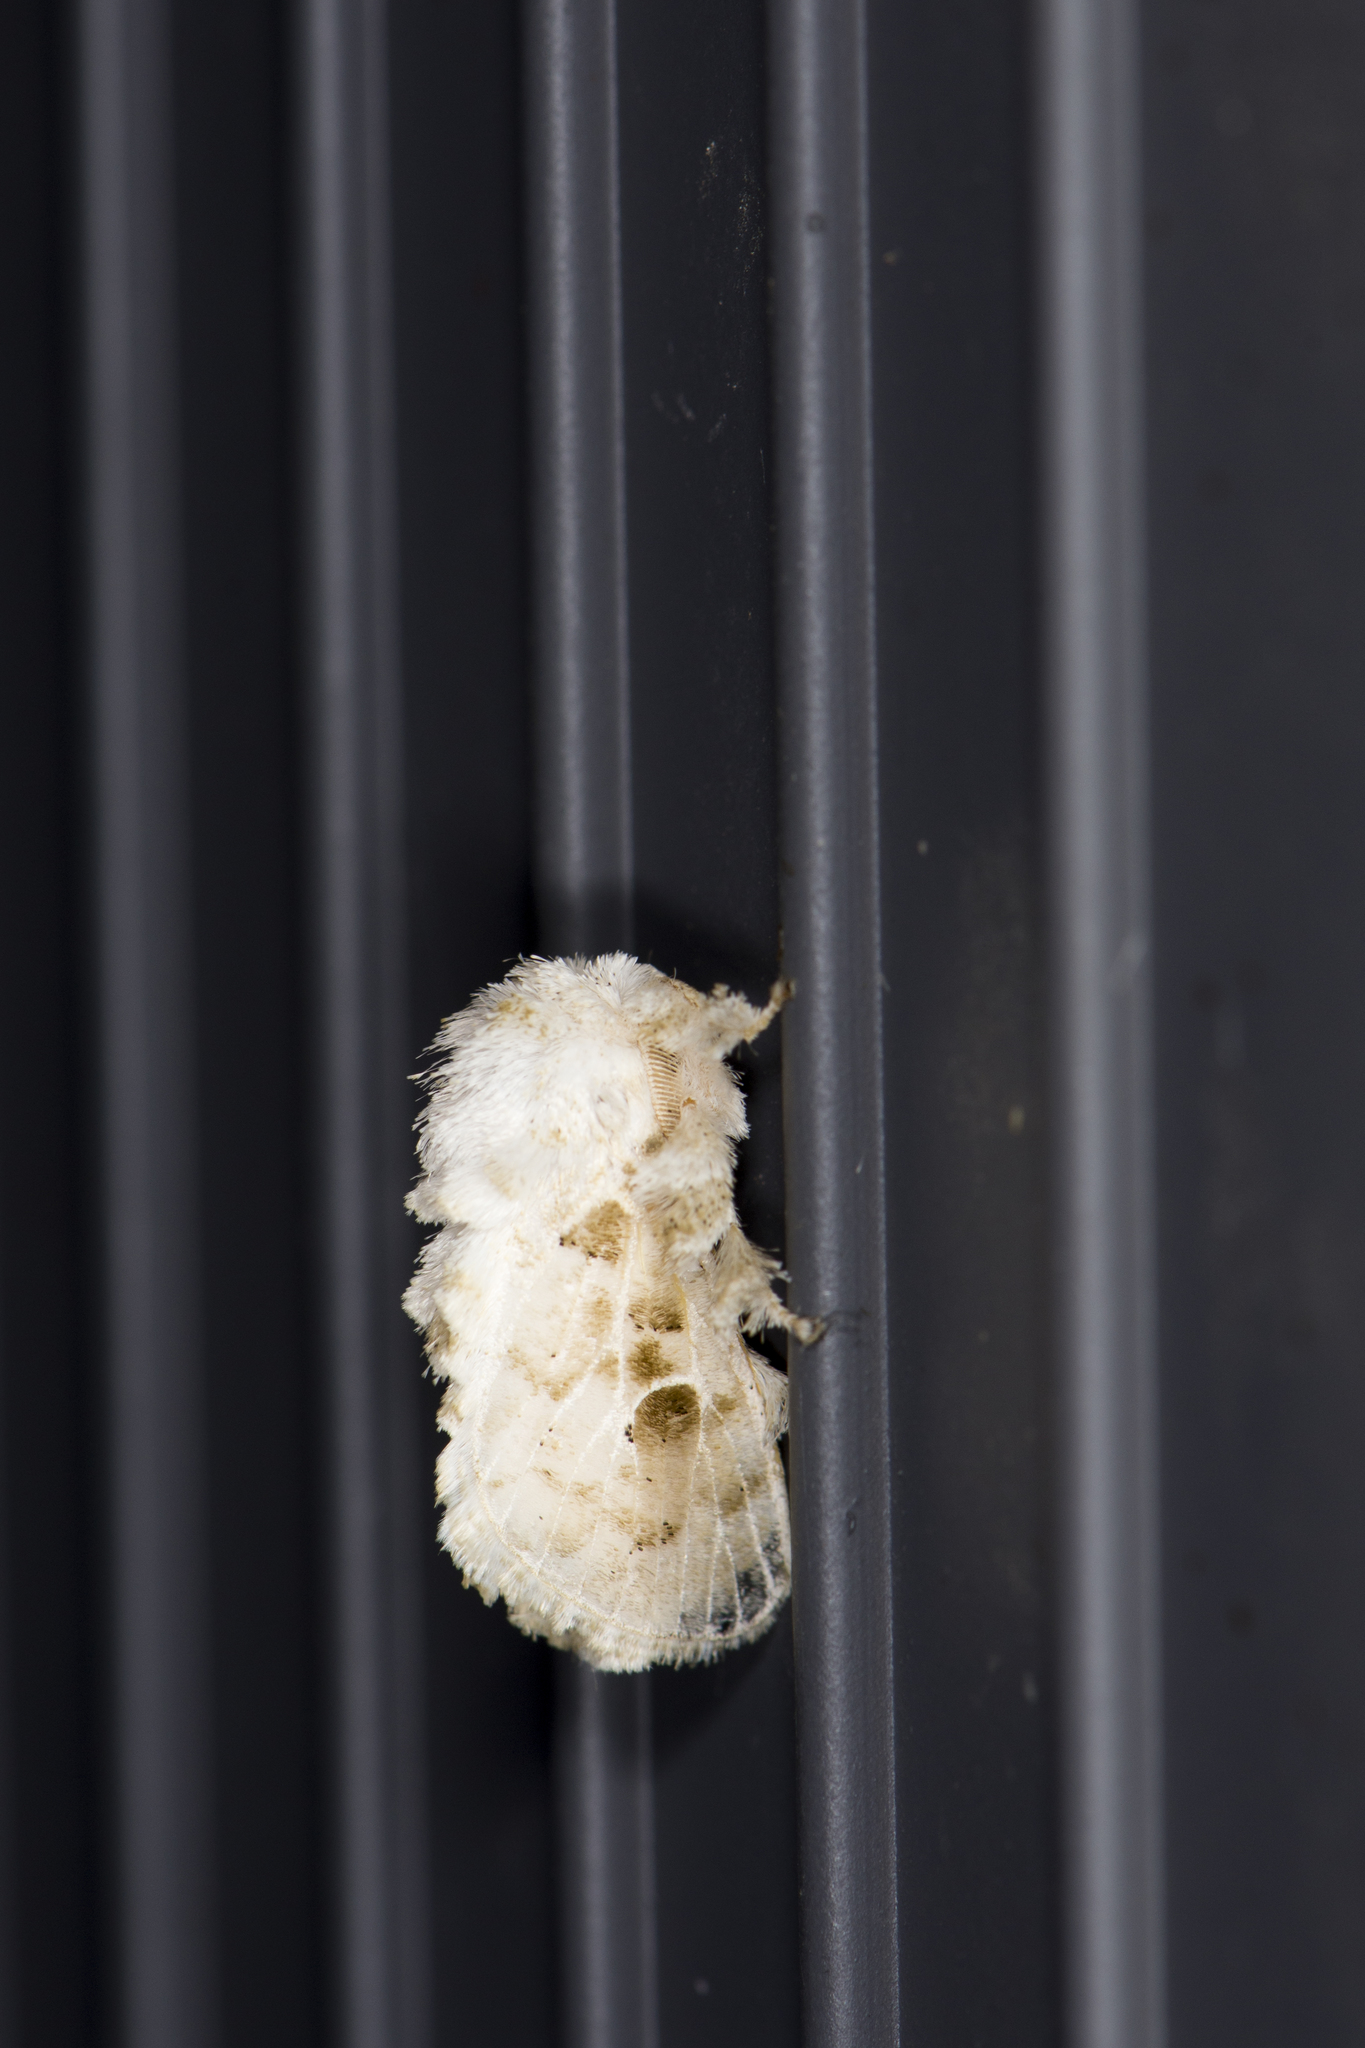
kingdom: Animalia
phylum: Arthropoda
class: Insecta
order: Lepidoptera
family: Limacodidae
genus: Altha
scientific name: Altha lacteola
